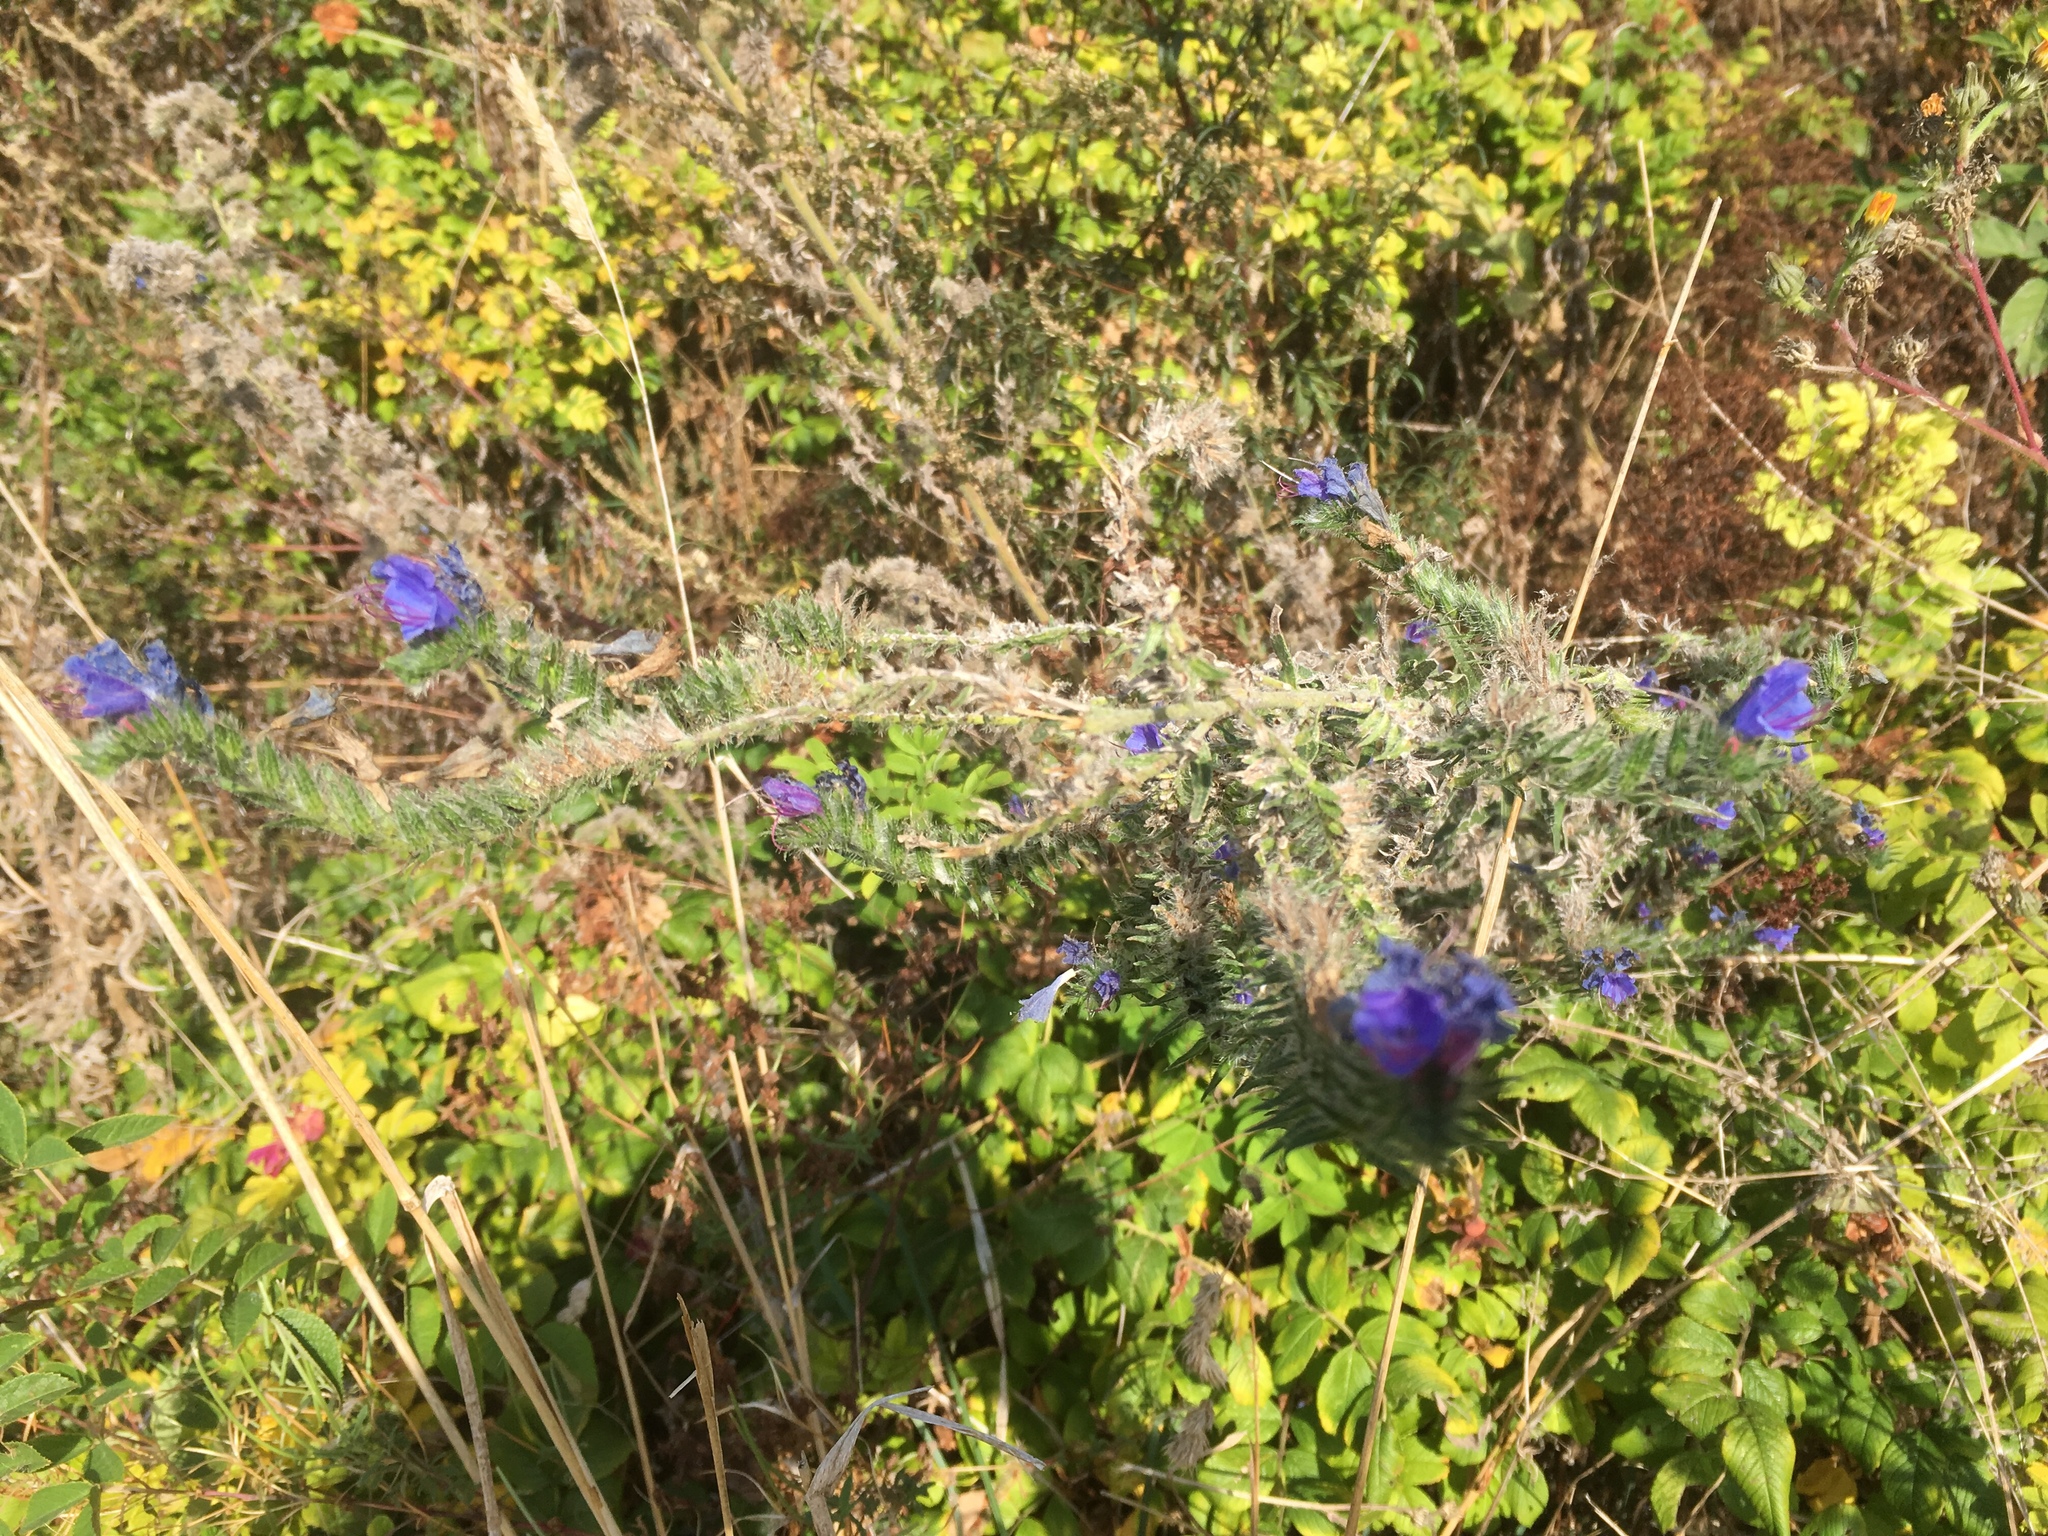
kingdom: Plantae
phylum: Tracheophyta
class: Magnoliopsida
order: Boraginales
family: Boraginaceae
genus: Echium
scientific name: Echium vulgare
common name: Common viper's bugloss
